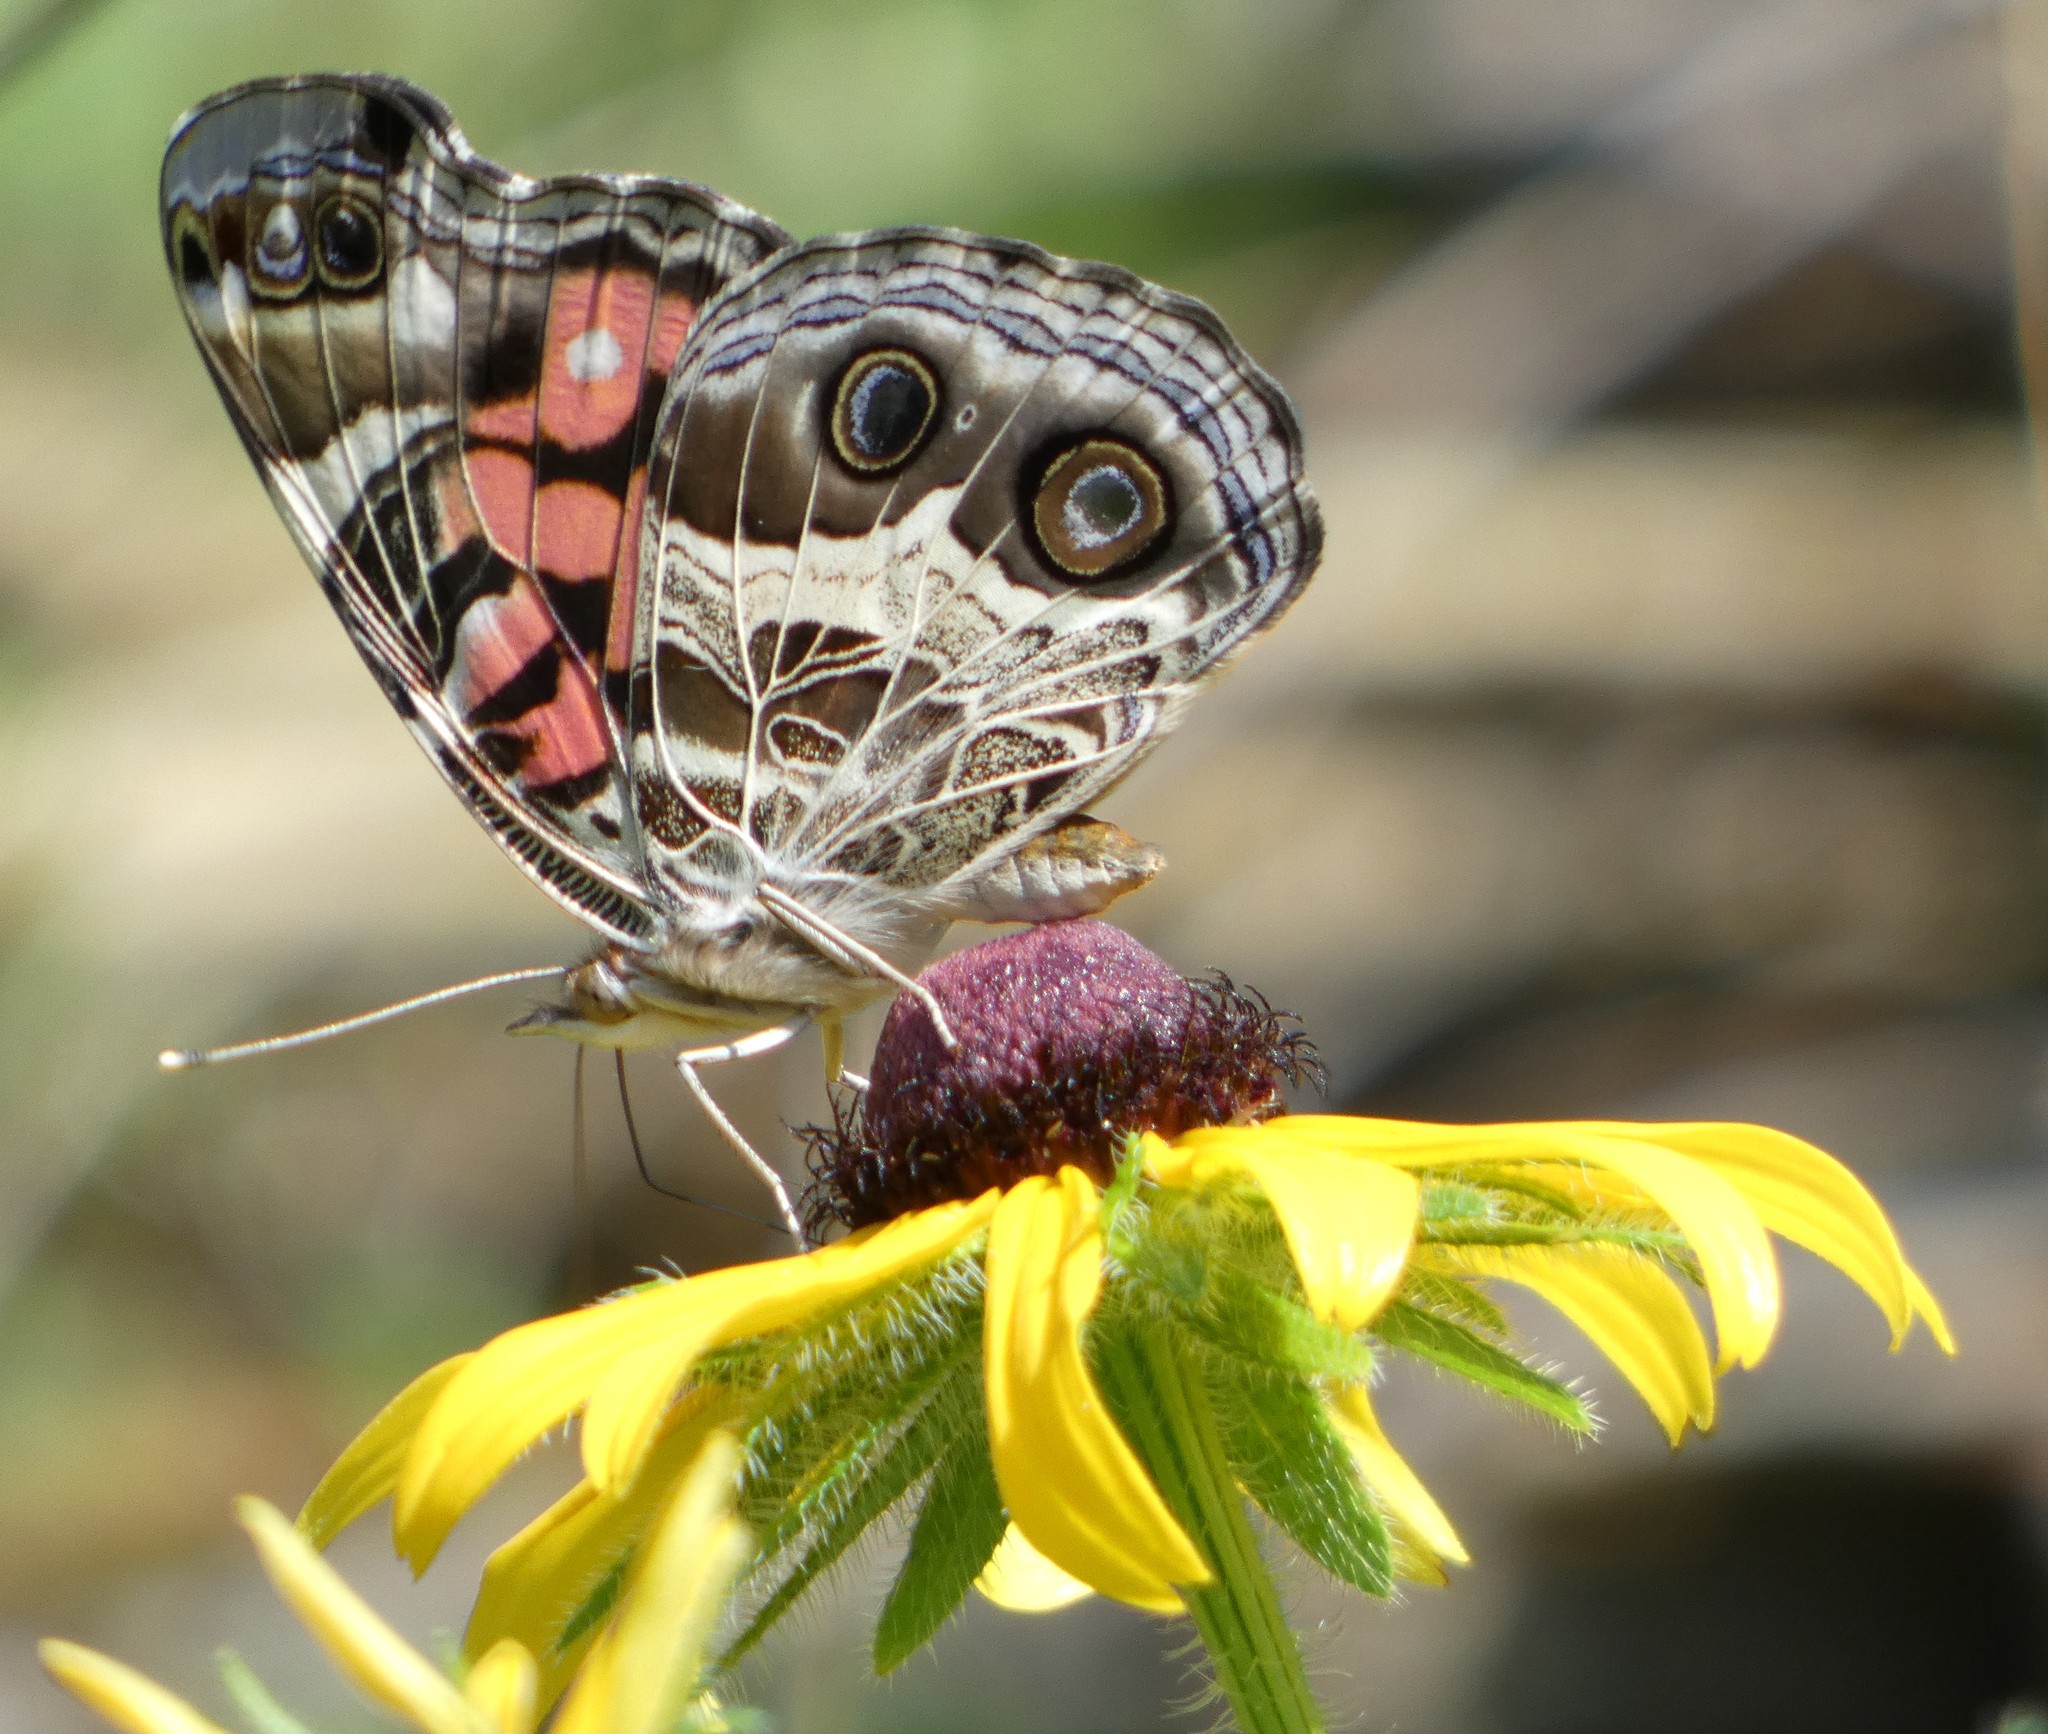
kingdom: Animalia
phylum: Arthropoda
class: Insecta
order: Lepidoptera
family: Nymphalidae
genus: Vanessa
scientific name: Vanessa virginiensis
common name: American lady
